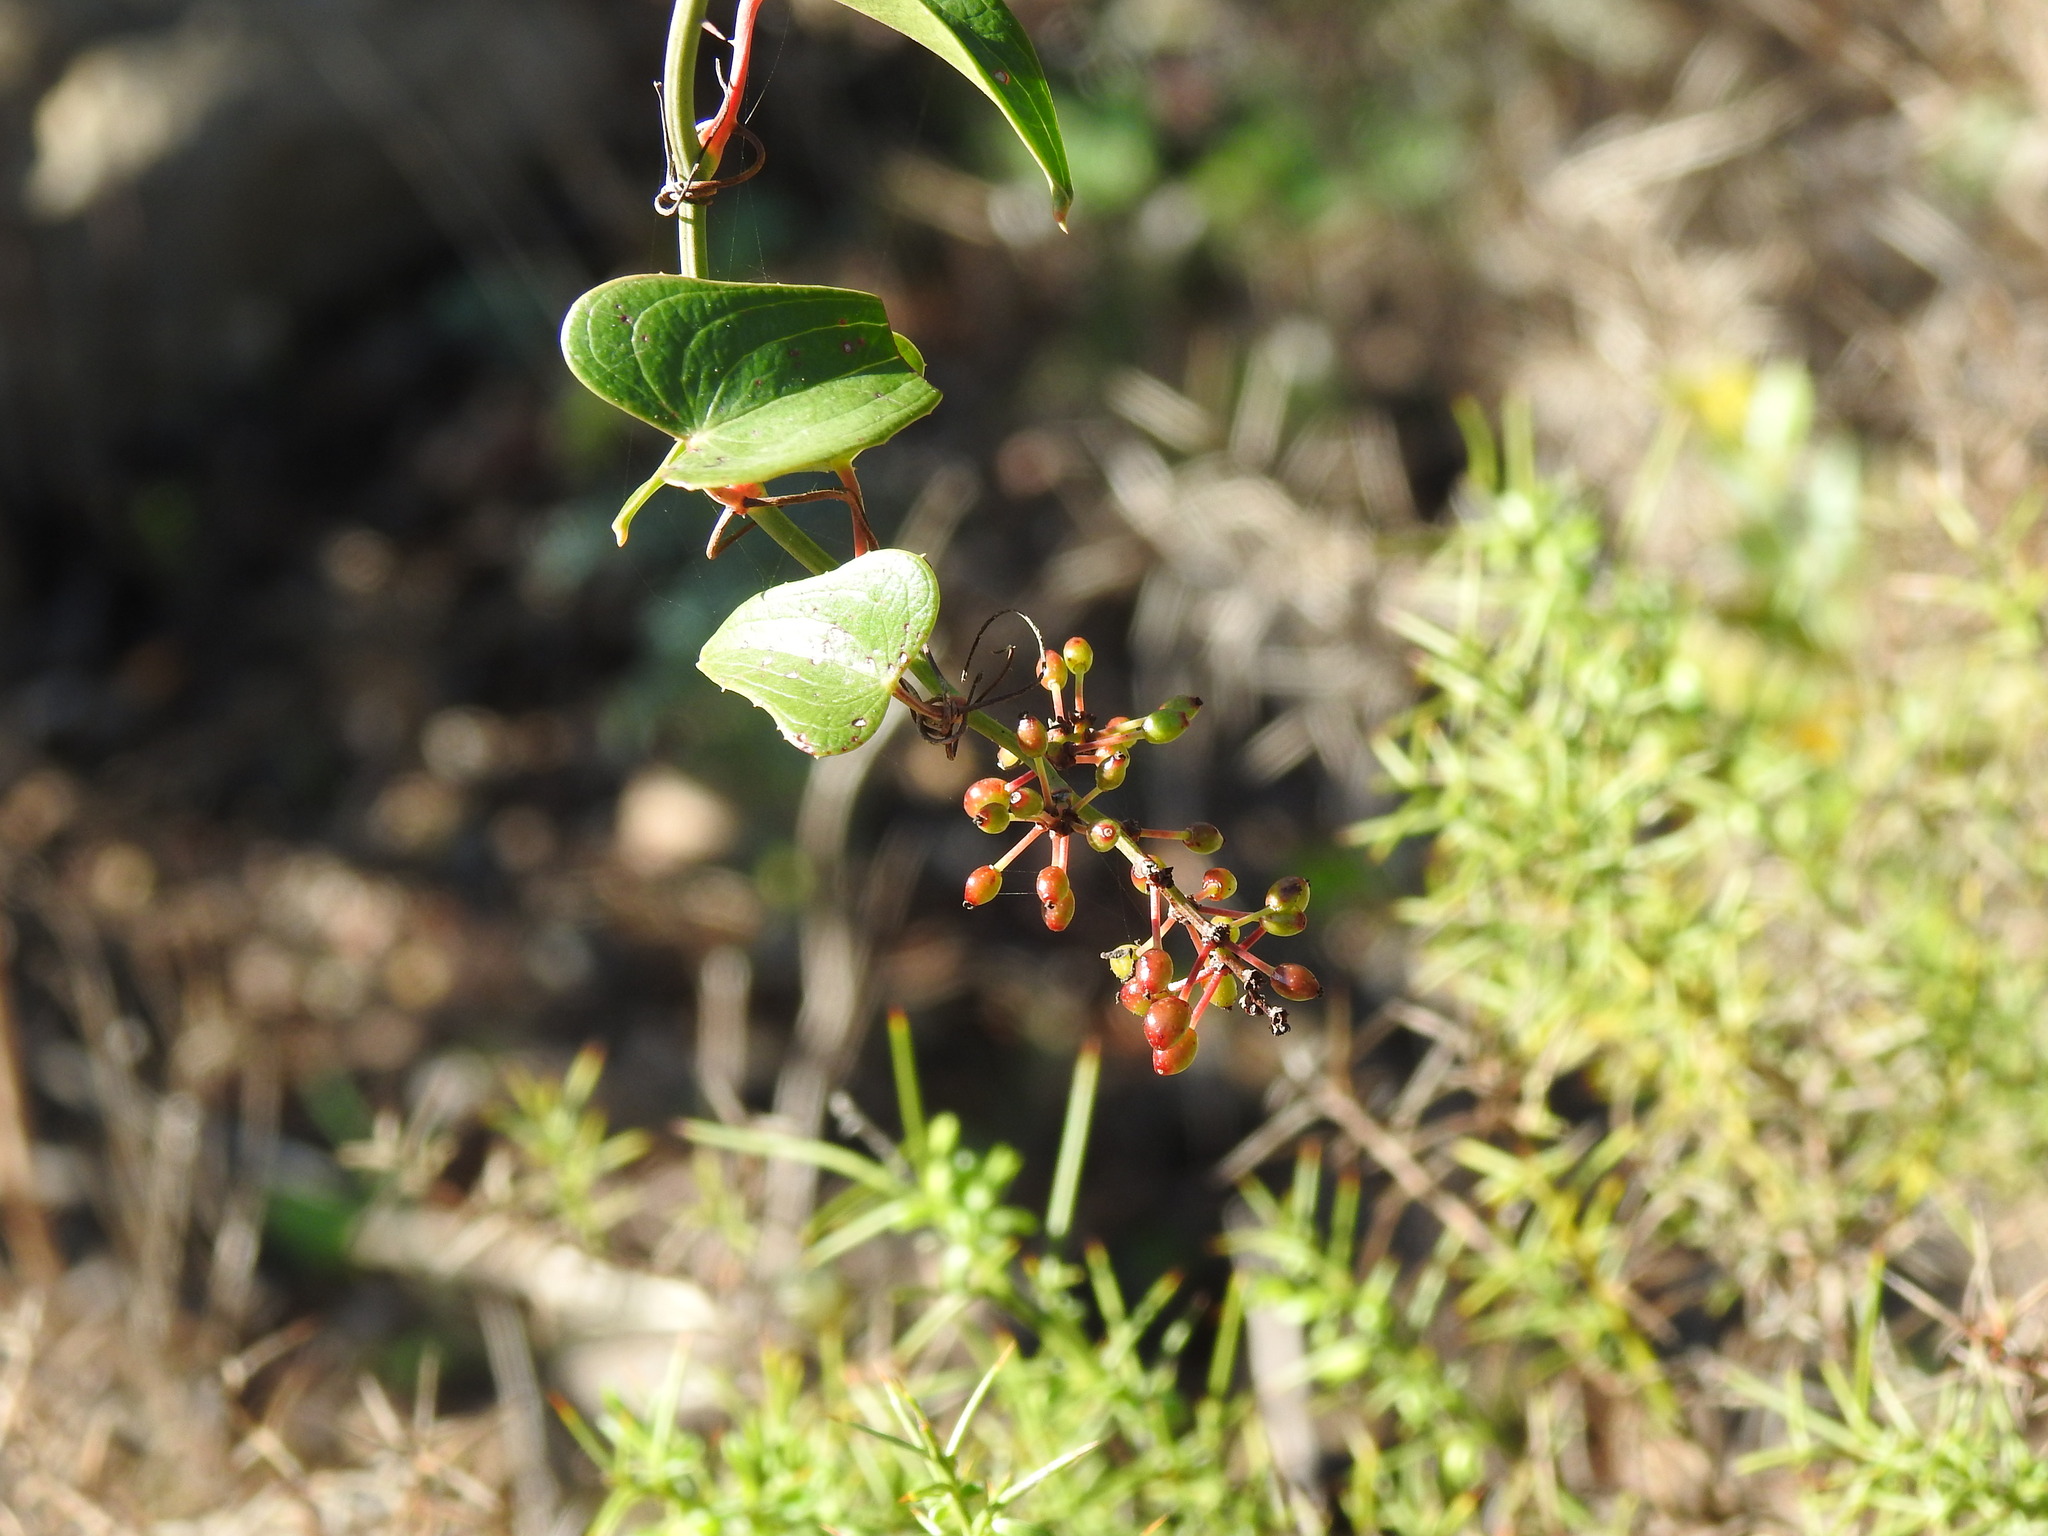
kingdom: Plantae
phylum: Tracheophyta
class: Liliopsida
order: Liliales
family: Smilacaceae
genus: Smilax
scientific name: Smilax aspera
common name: Common smilax
